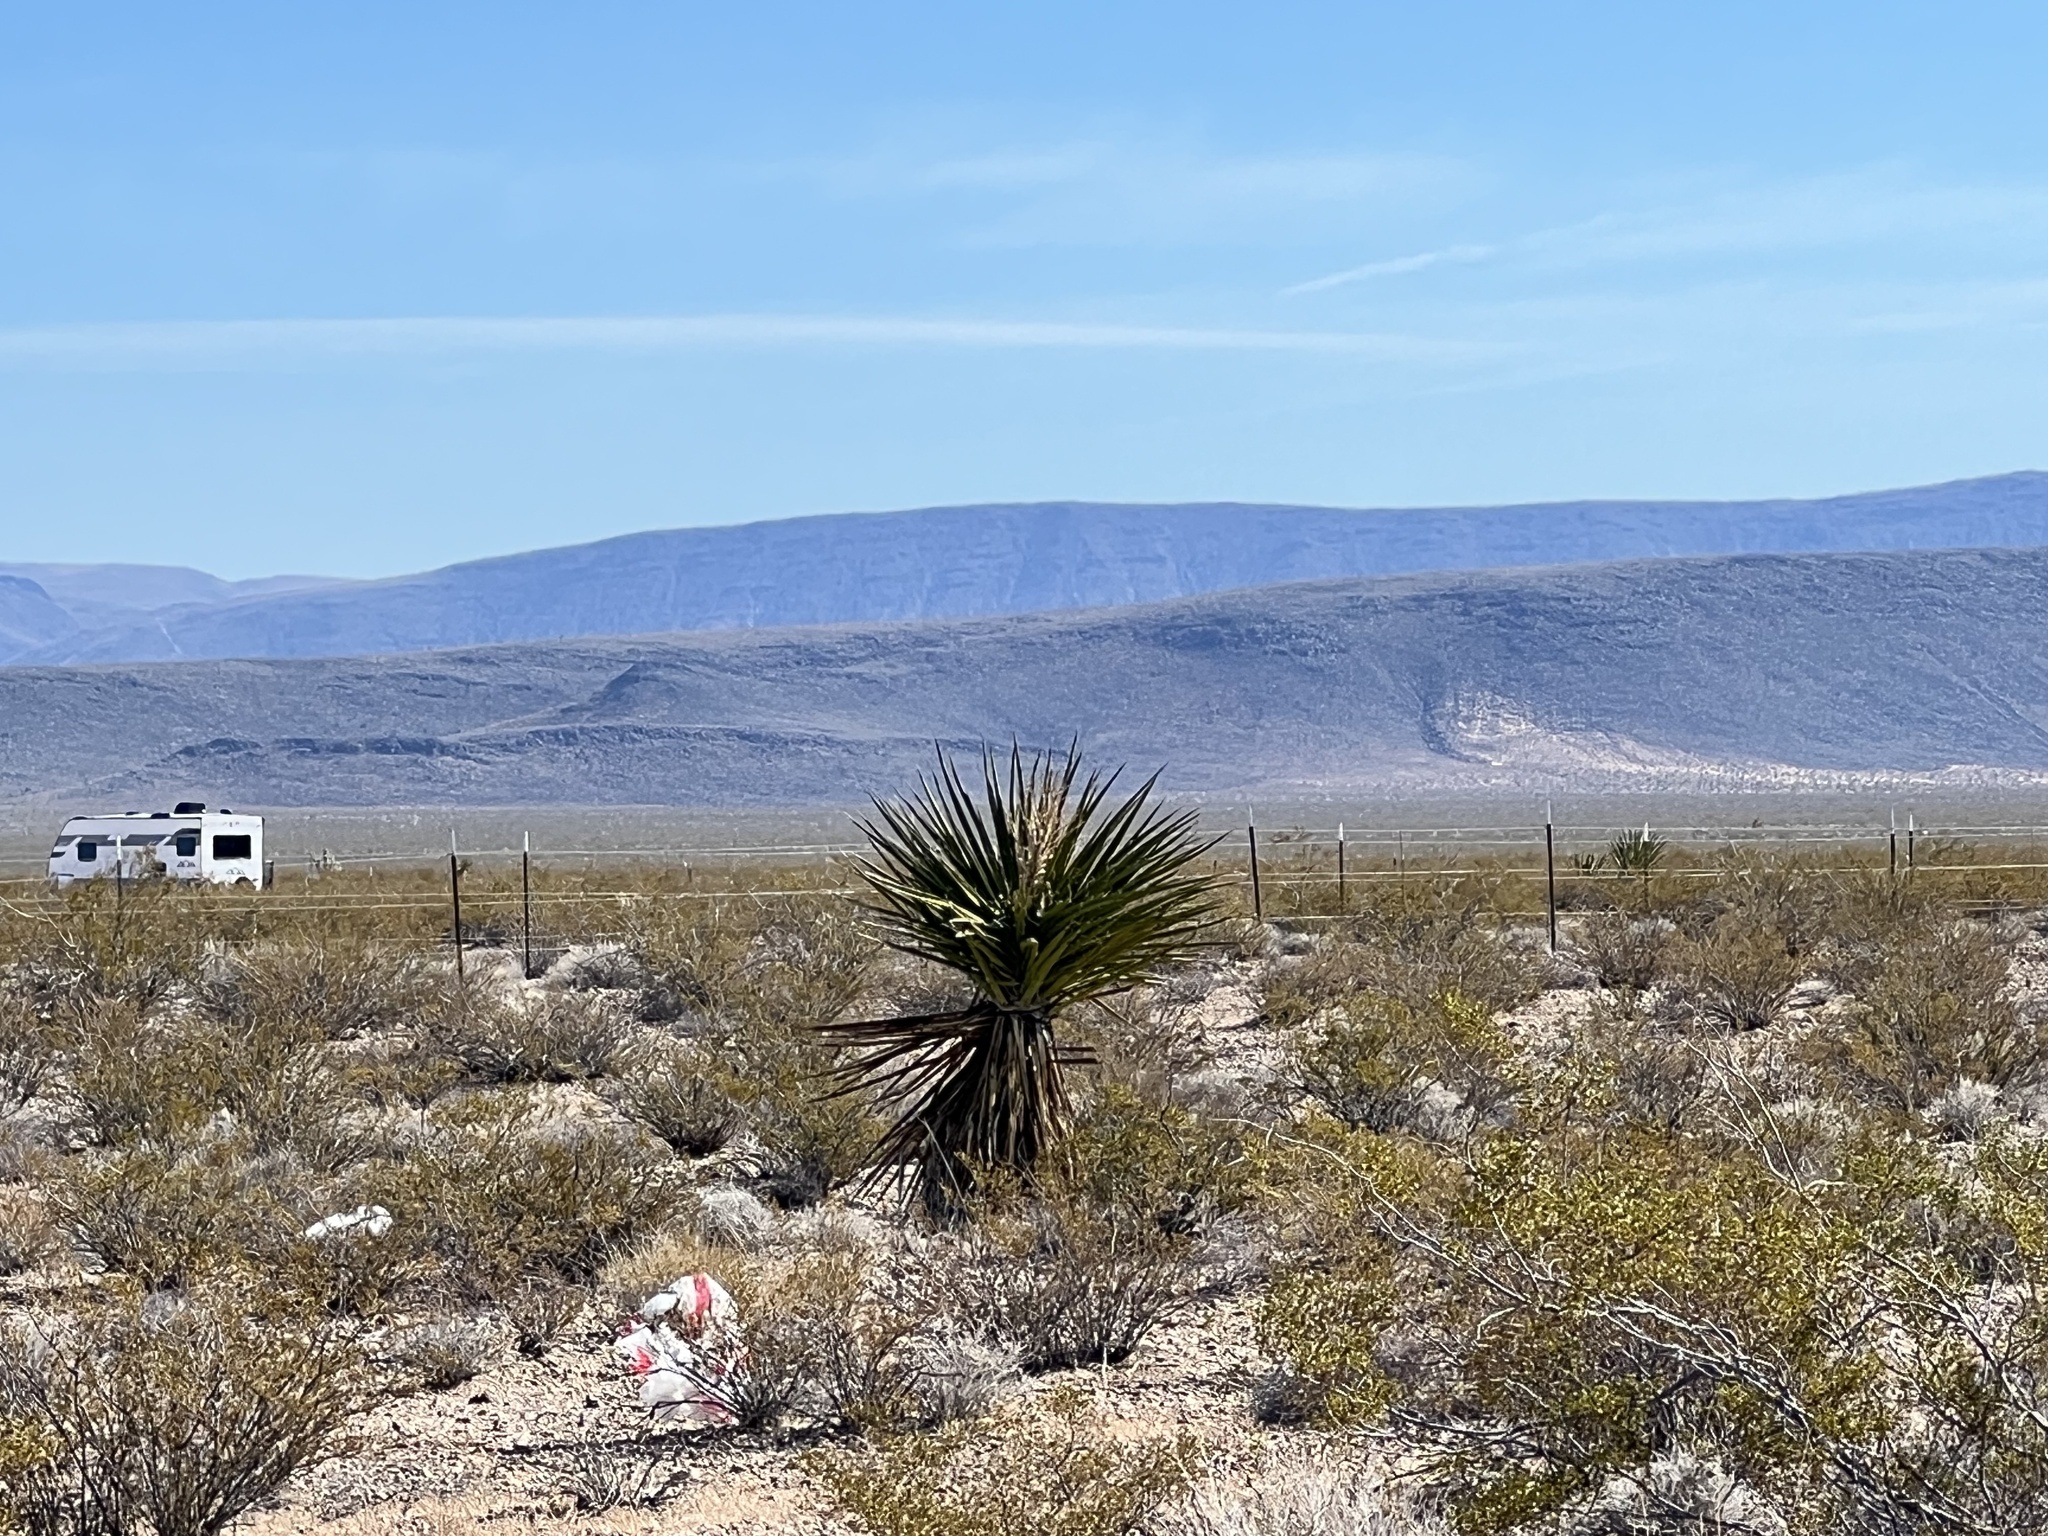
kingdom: Plantae
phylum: Tracheophyta
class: Liliopsida
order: Asparagales
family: Asparagaceae
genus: Yucca
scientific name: Yucca schidigera
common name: Mojave yucca
